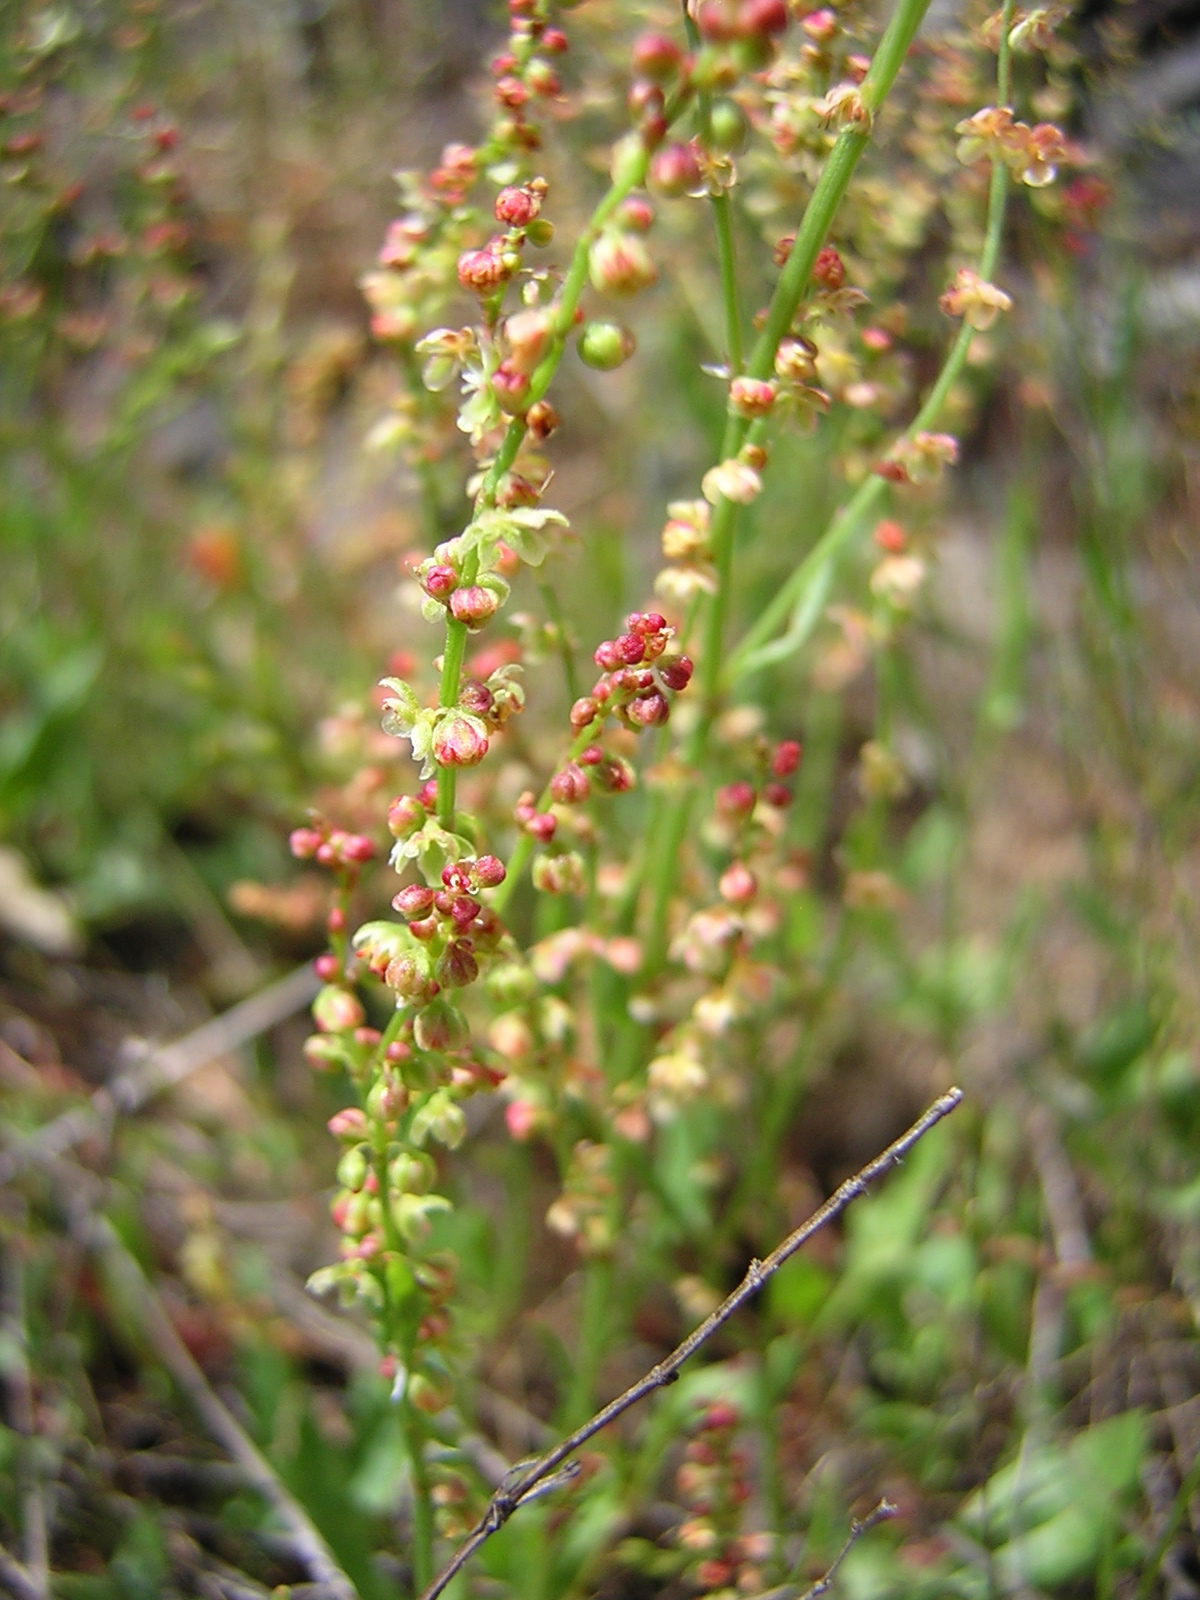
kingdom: Plantae
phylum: Tracheophyta
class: Magnoliopsida
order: Caryophyllales
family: Polygonaceae
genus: Rumex
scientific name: Rumex acetosella
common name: Common sheep sorrel
